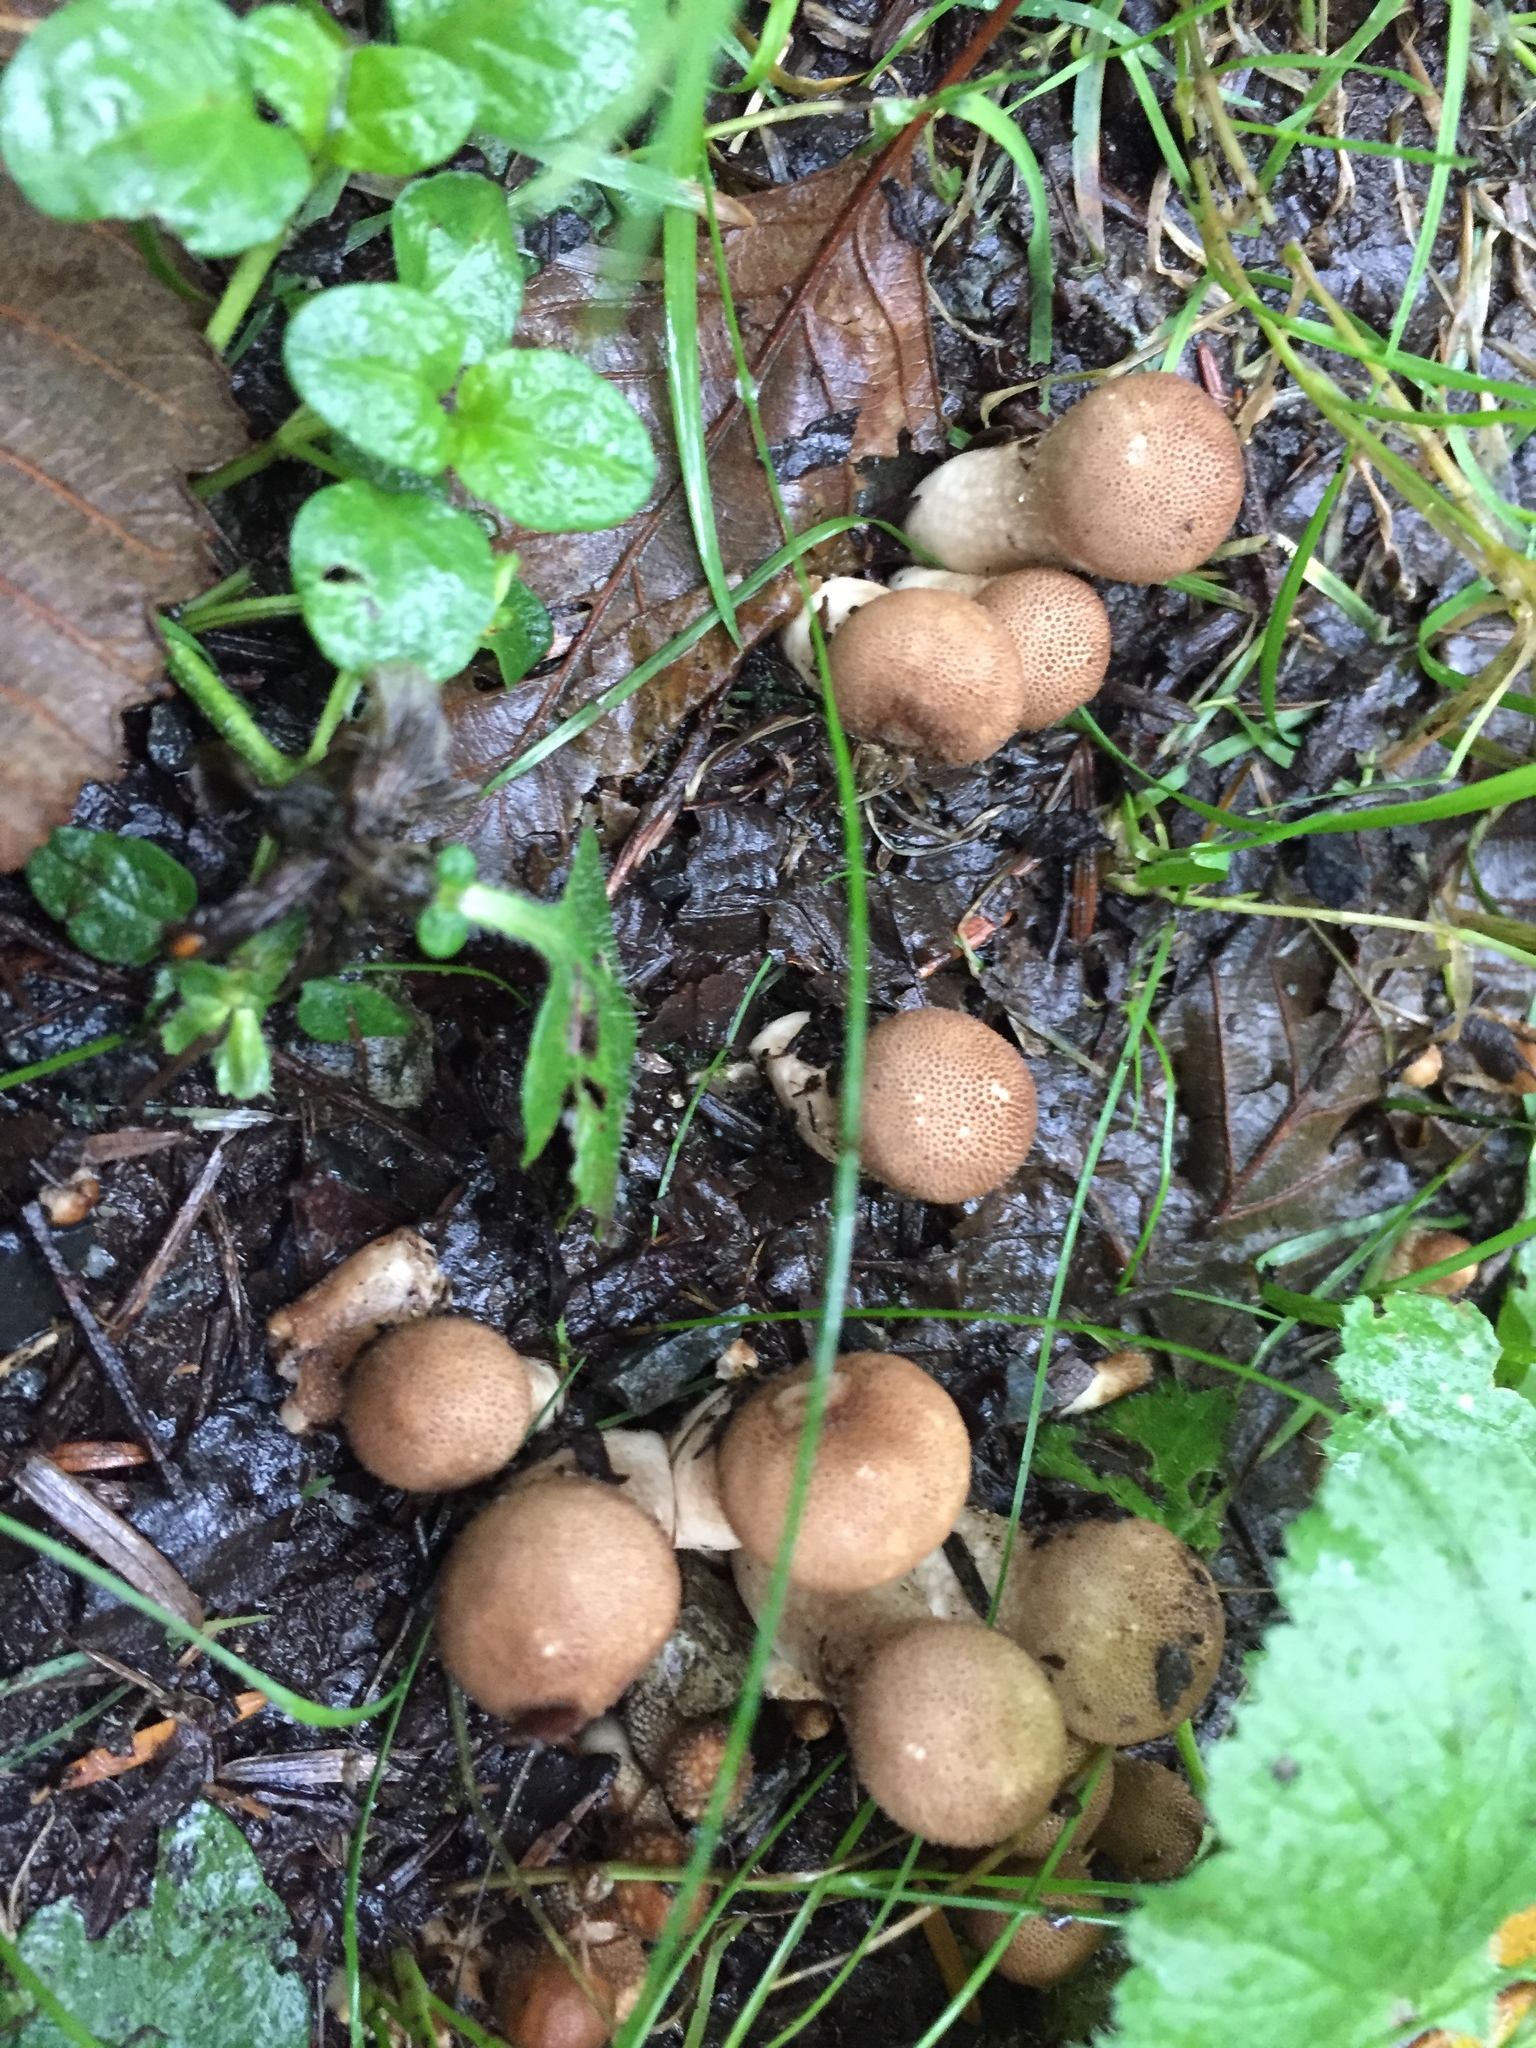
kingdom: Fungi
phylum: Basidiomycota
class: Agaricomycetes
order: Agaricales
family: Lycoperdaceae
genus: Apioperdon
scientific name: Apioperdon pyriforme
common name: Pear-shaped puffball
